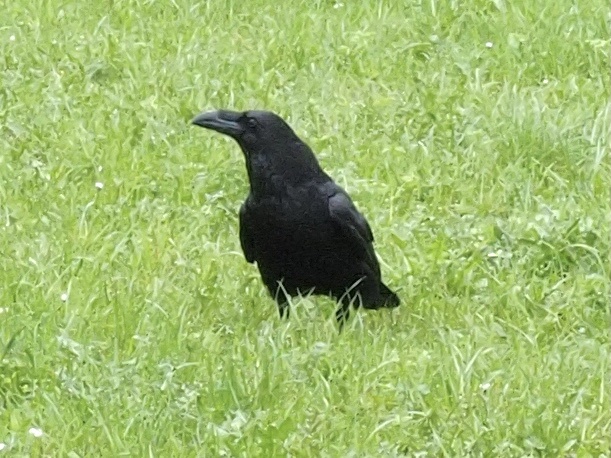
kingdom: Animalia
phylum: Chordata
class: Aves
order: Passeriformes
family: Corvidae
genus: Corvus
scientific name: Corvus corax
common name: Common raven
